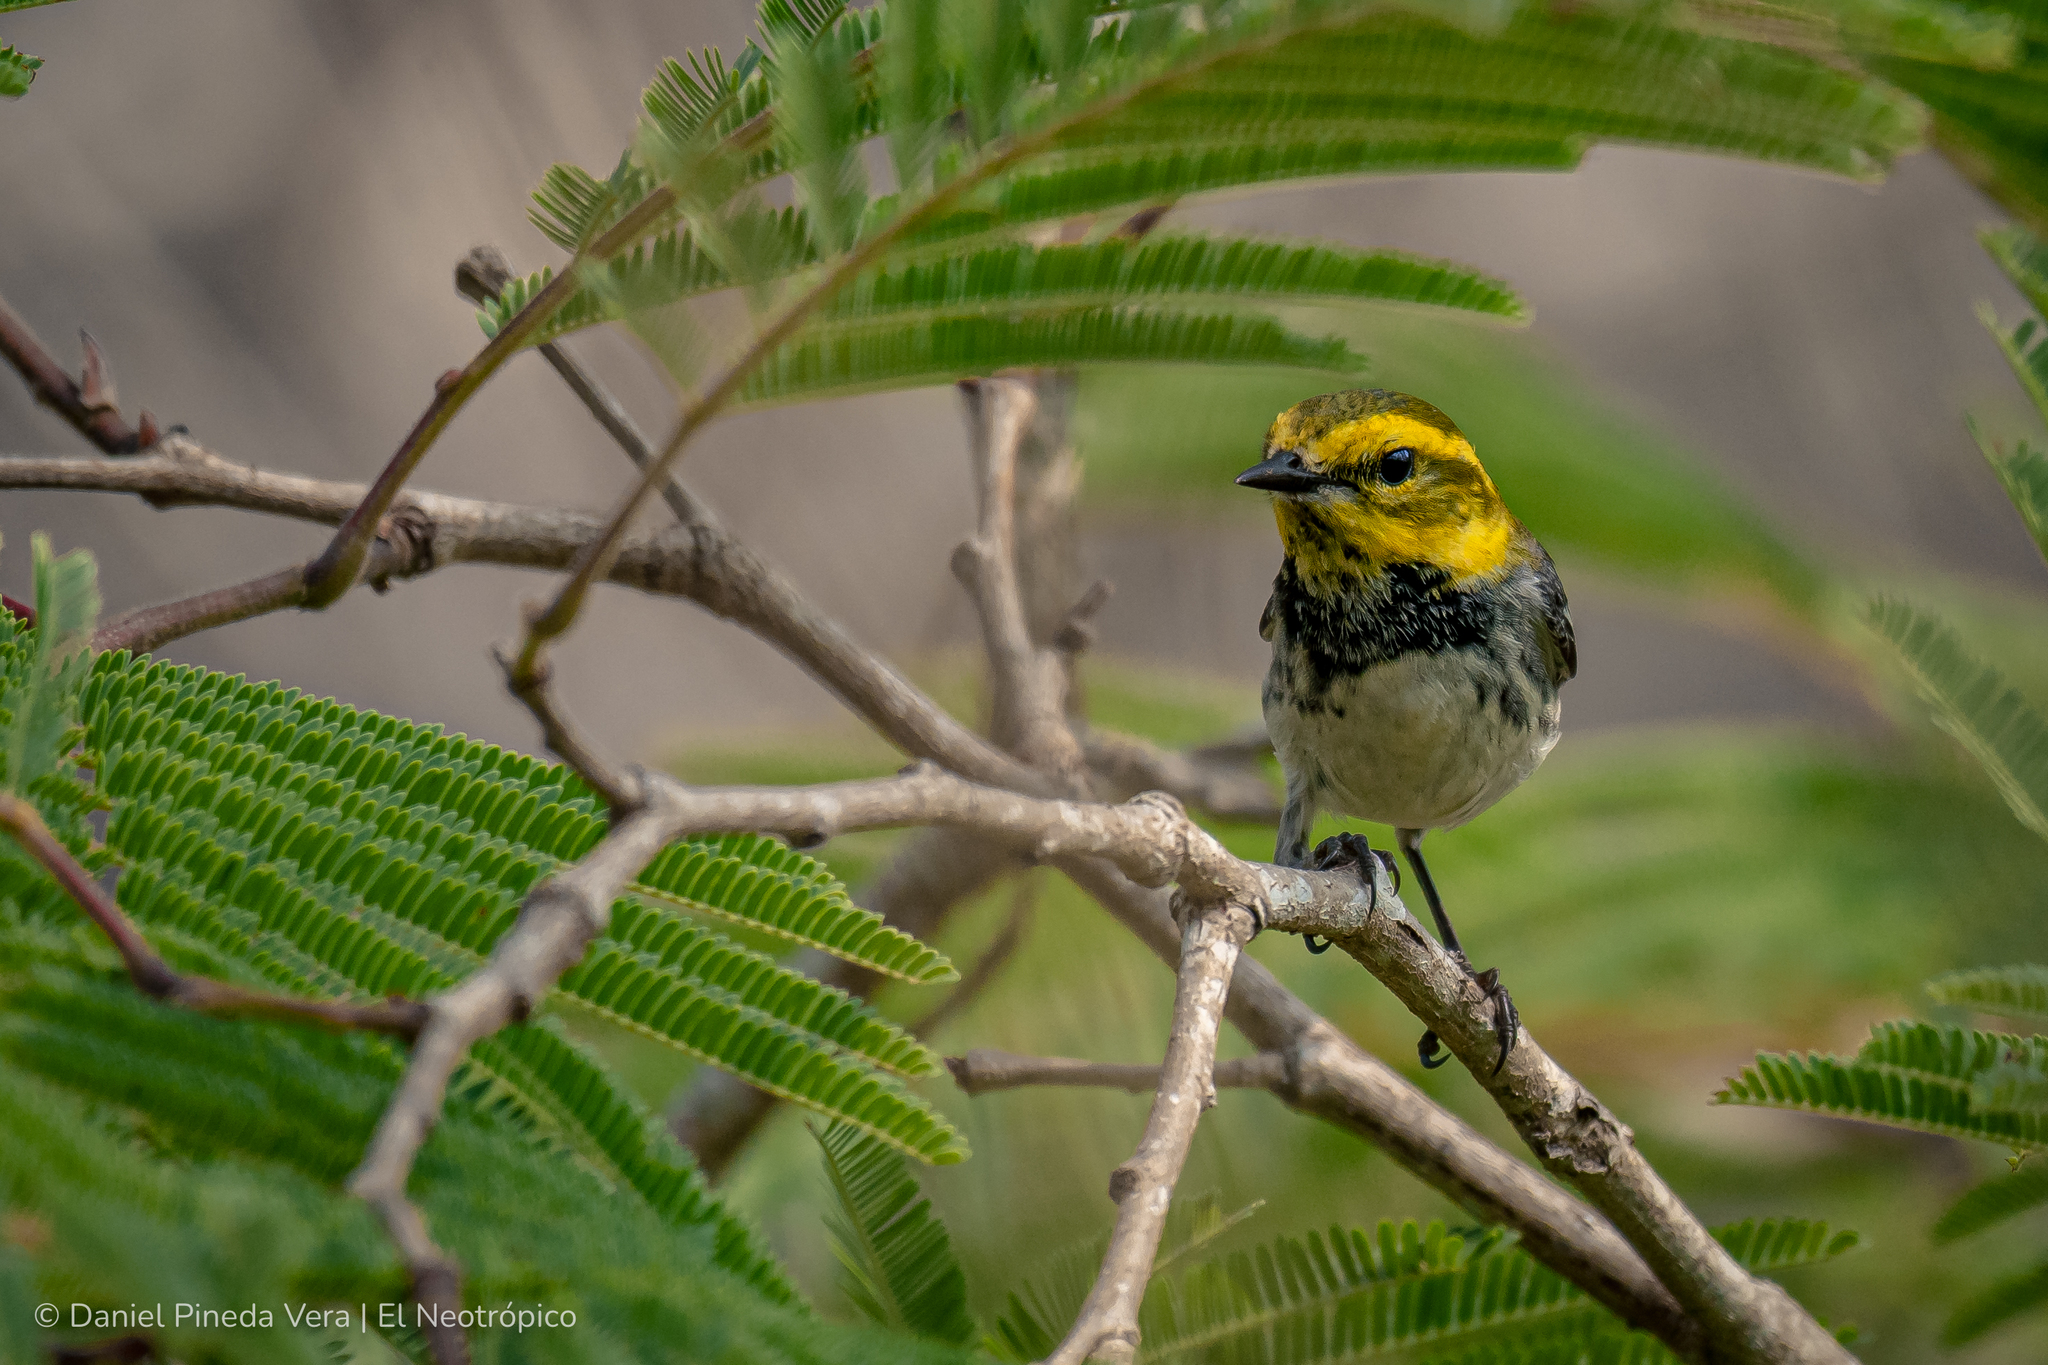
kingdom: Animalia
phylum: Chordata
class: Aves
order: Passeriformes
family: Parulidae
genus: Setophaga
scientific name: Setophaga virens
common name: Black-throated green warbler
